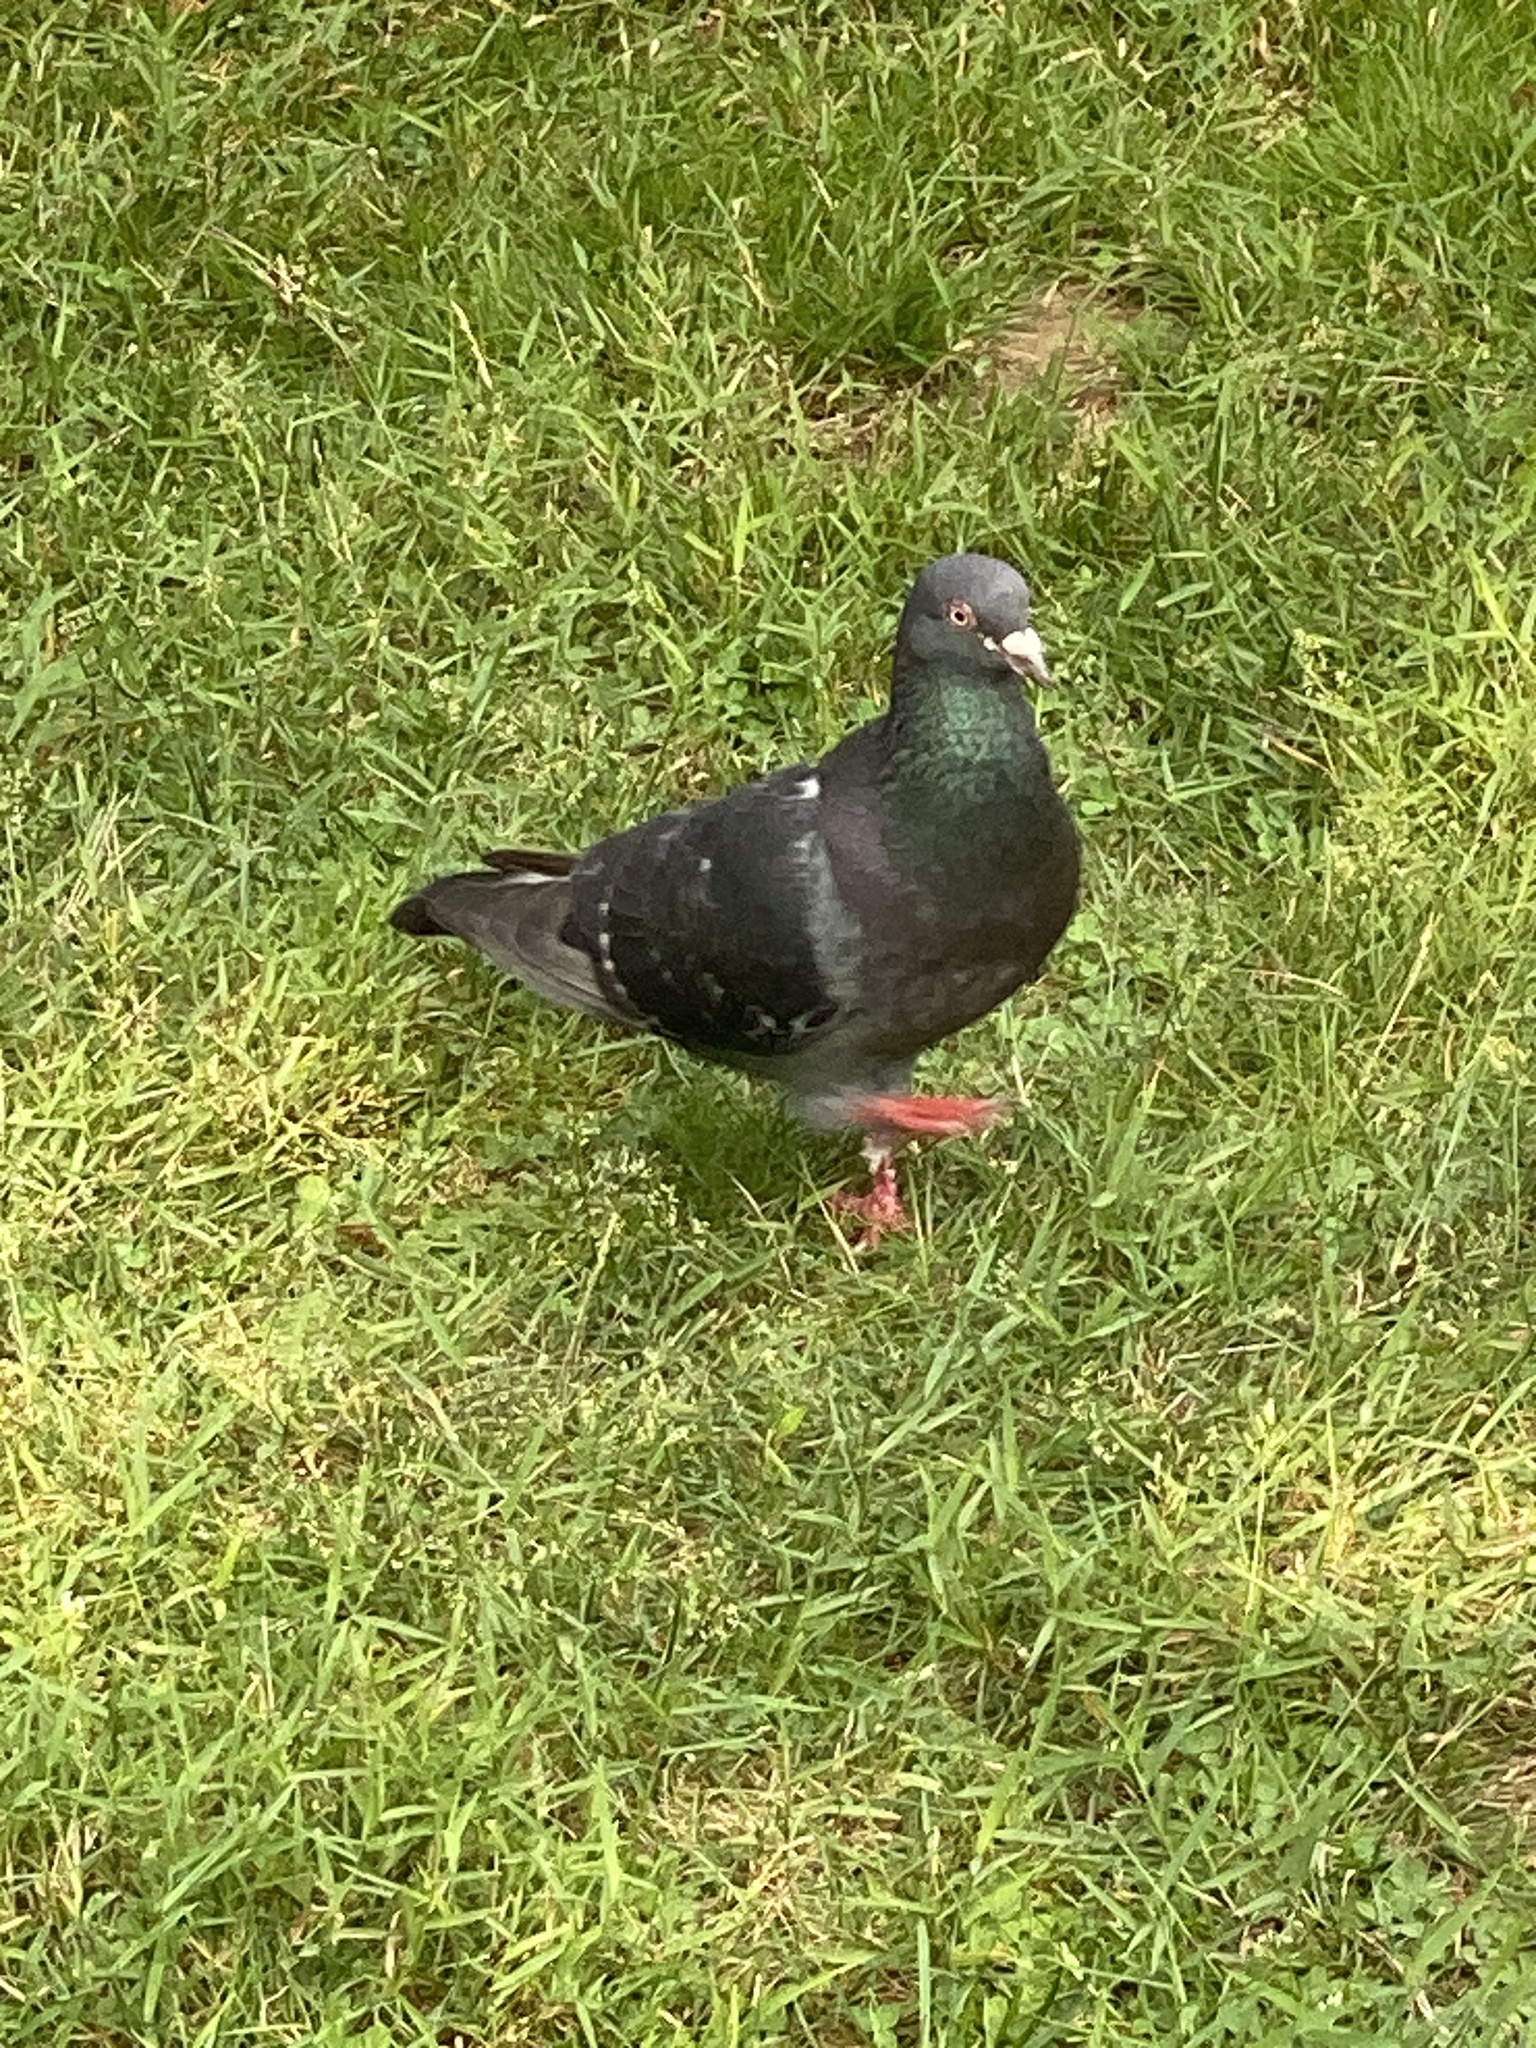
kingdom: Animalia
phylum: Chordata
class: Aves
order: Columbiformes
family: Columbidae
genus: Columba
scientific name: Columba livia
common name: Rock pigeon
